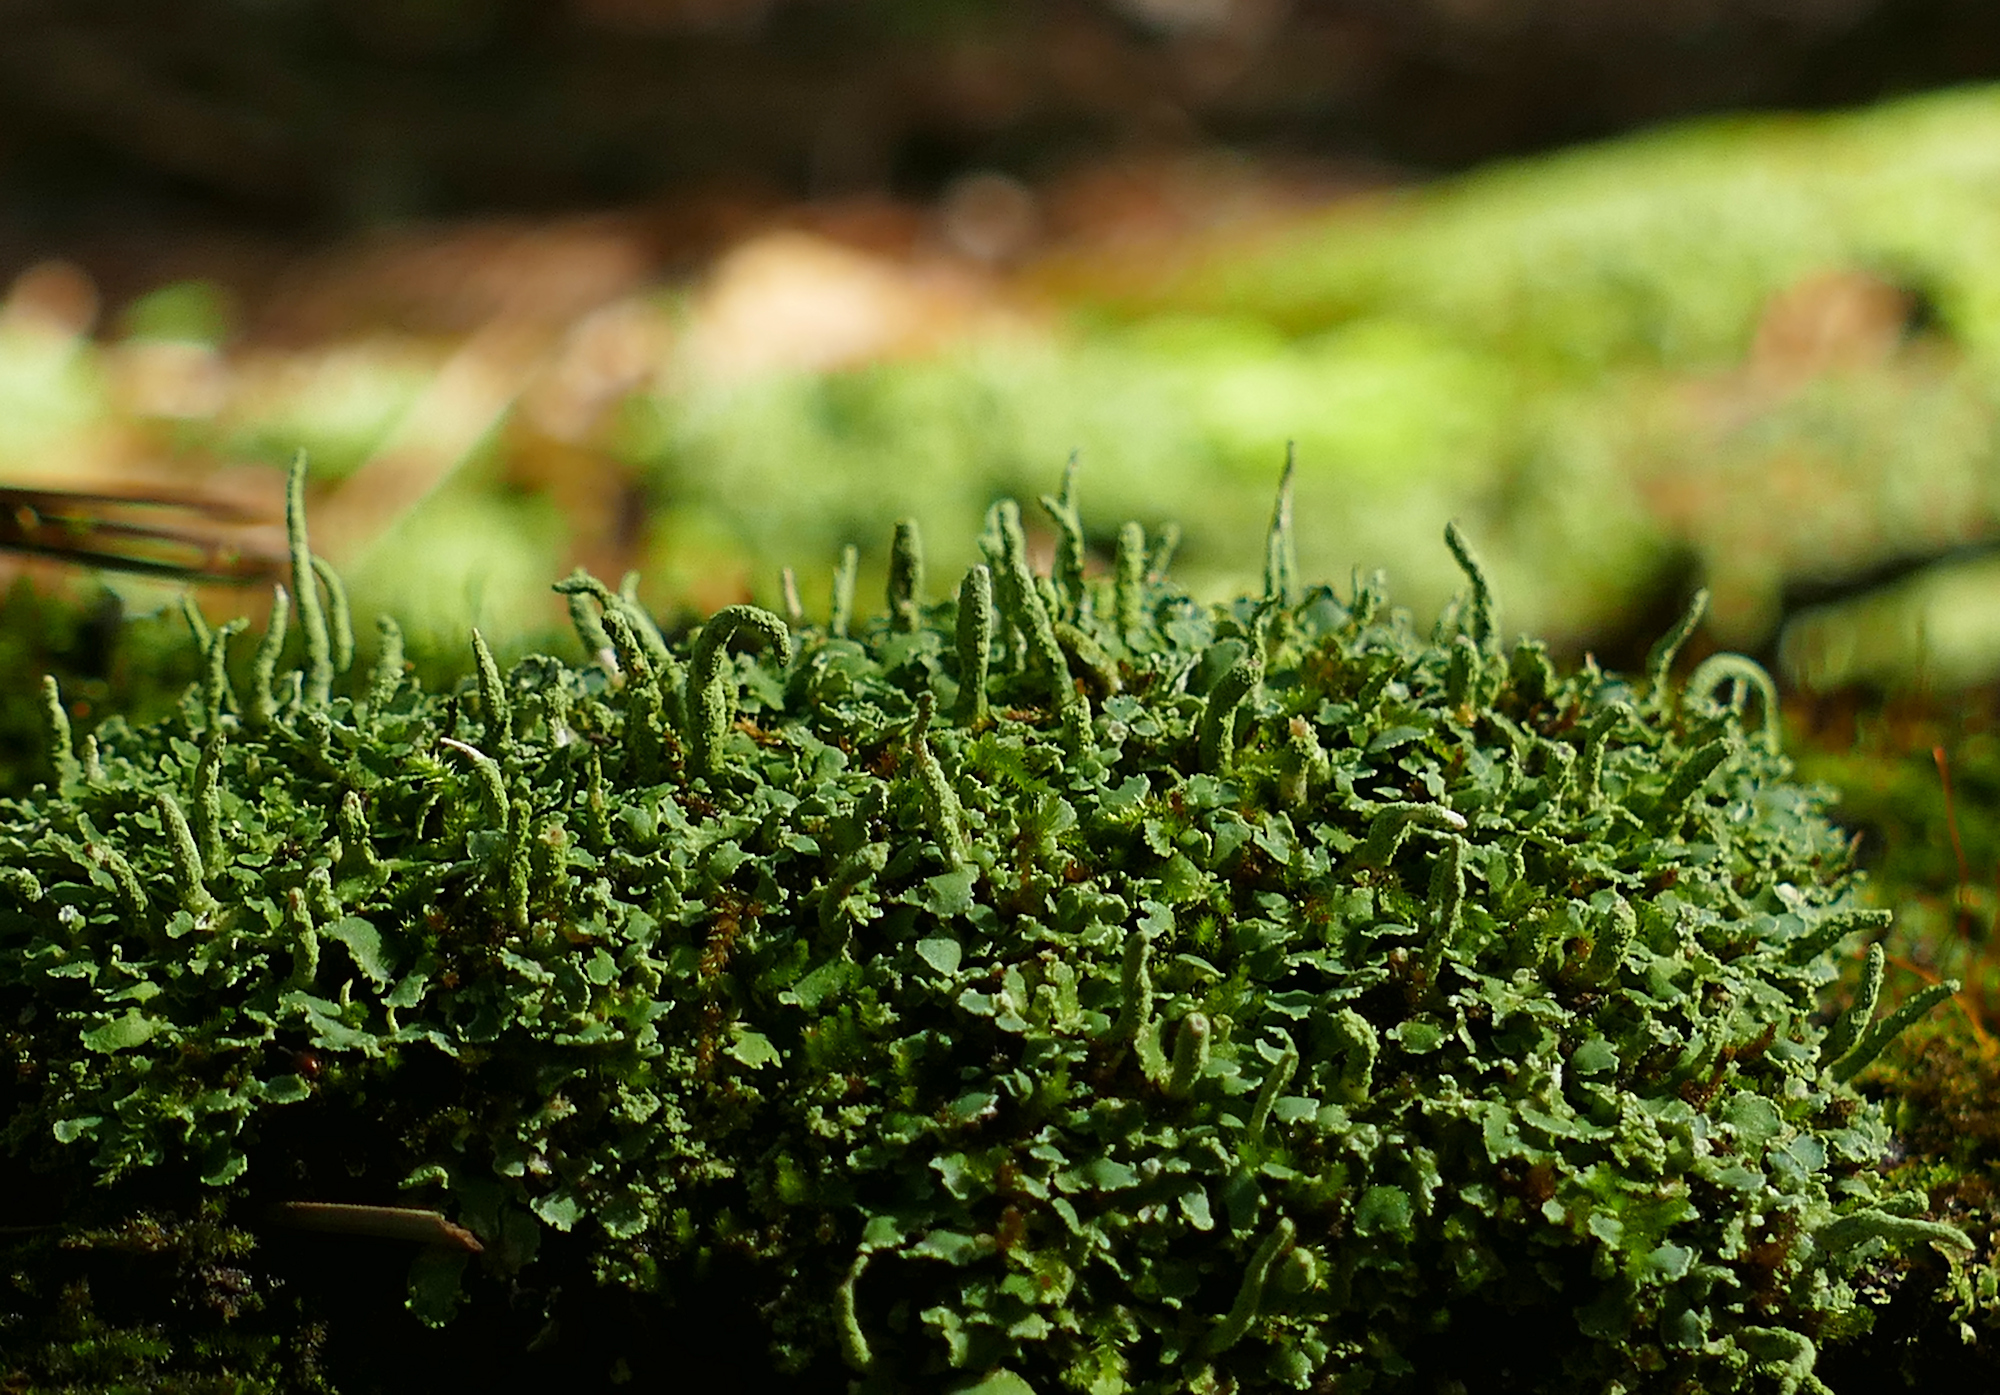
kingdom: Fungi
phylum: Ascomycota
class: Lecanoromycetes
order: Lecanorales
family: Cladoniaceae
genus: Cladonia
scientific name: Cladonia coniocraea
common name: Common powderhorn
